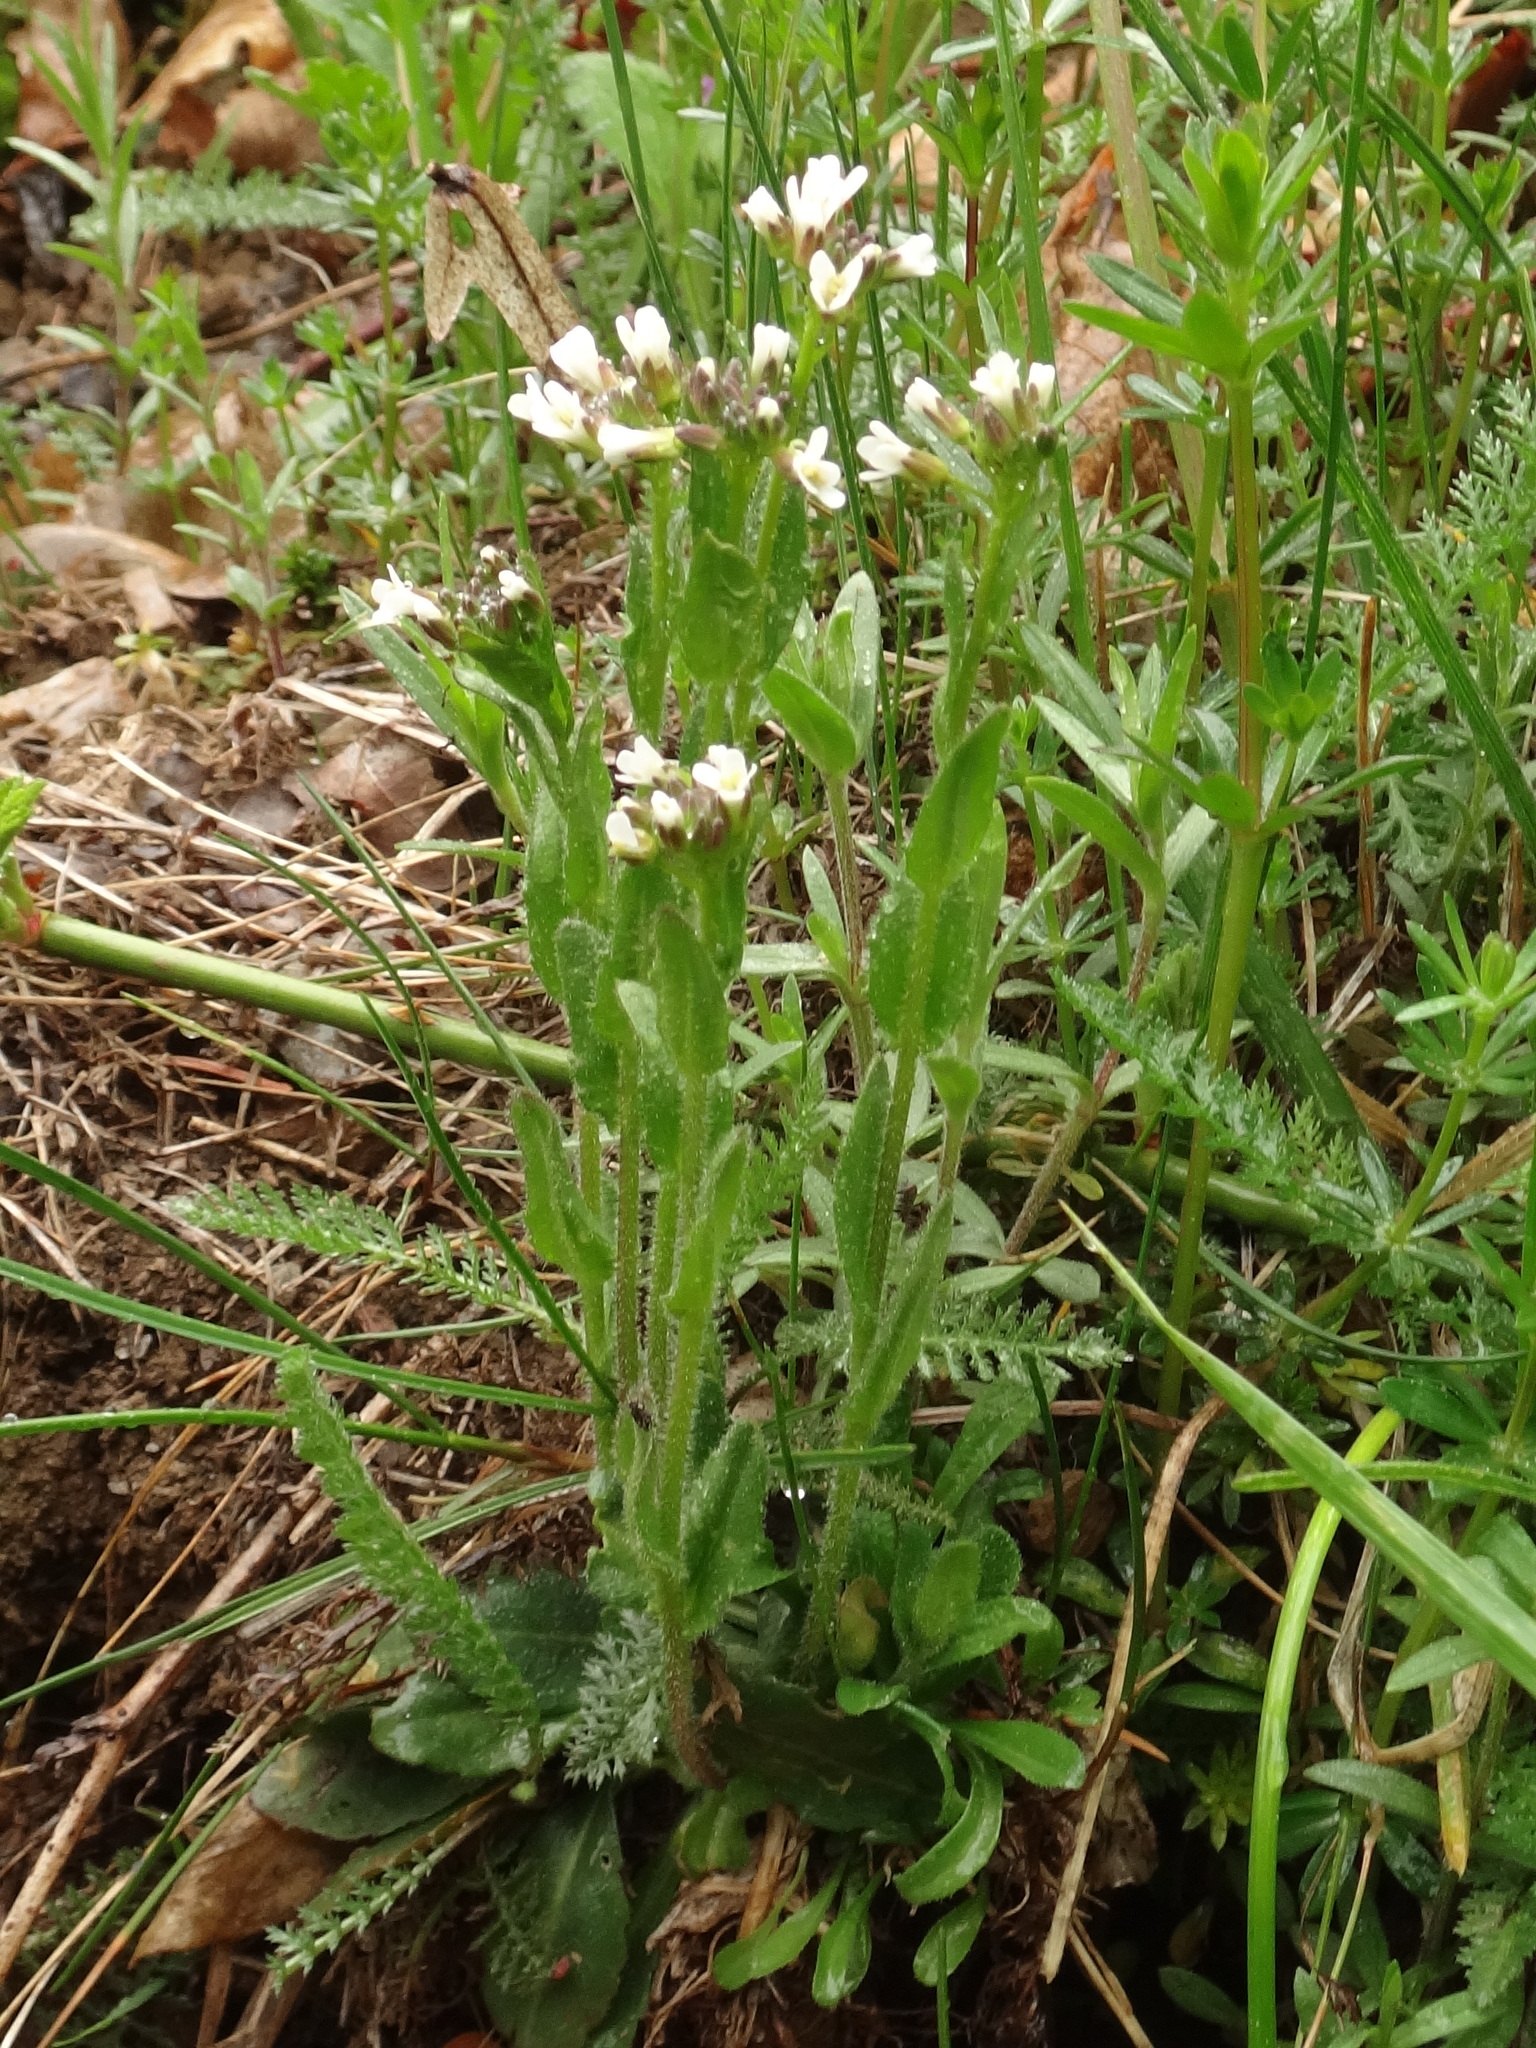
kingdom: Plantae
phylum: Tracheophyta
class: Magnoliopsida
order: Brassicales
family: Brassicaceae
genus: Arabis
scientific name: Arabis hirsuta
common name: Hairy rock-cress
